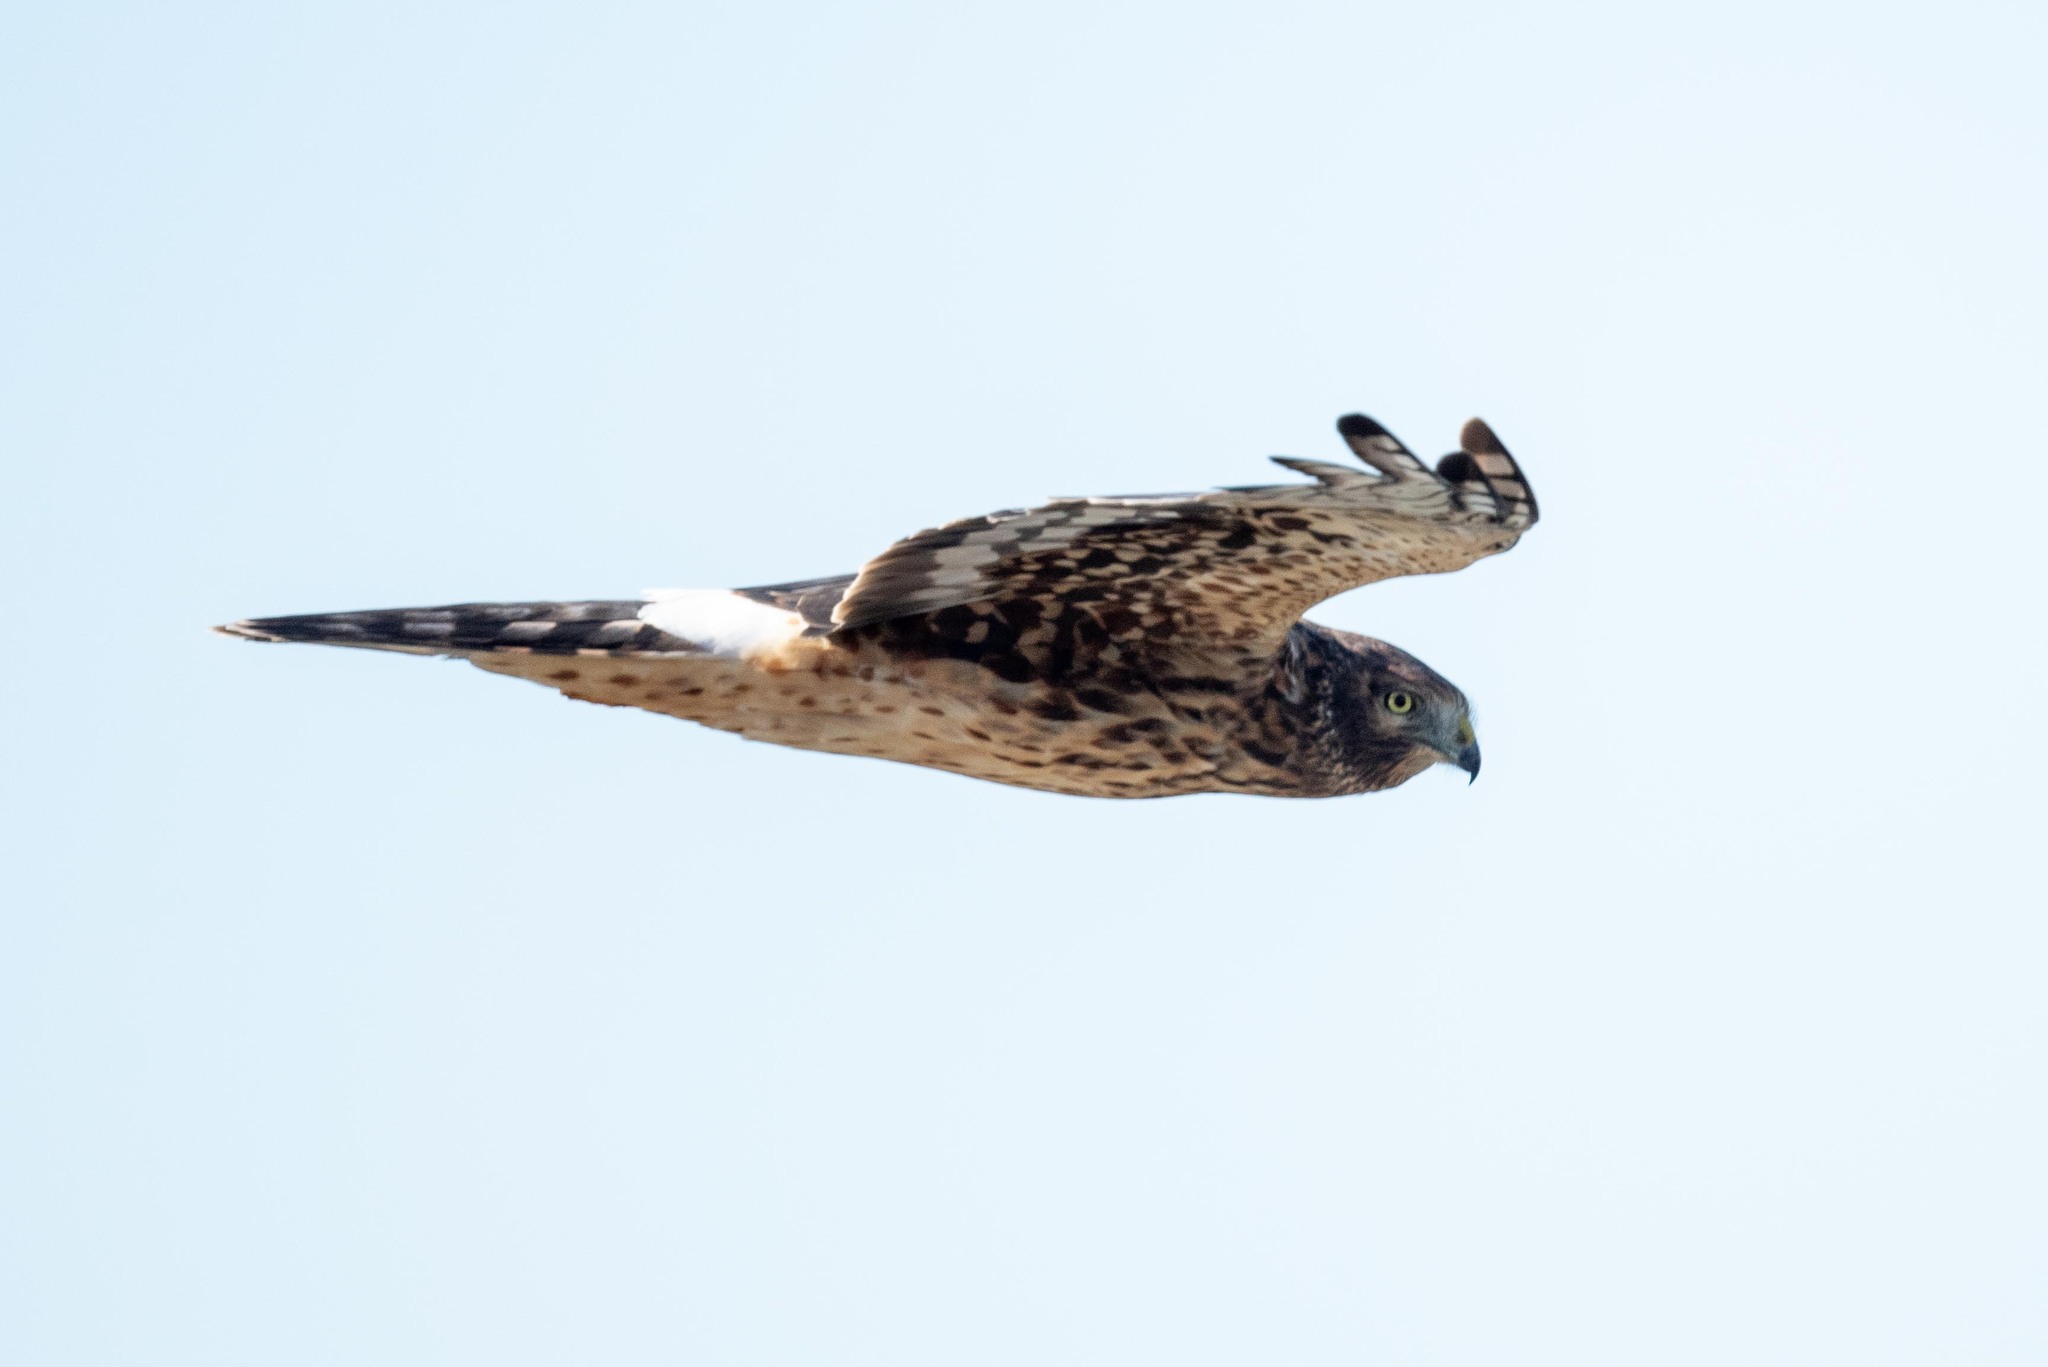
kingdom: Animalia
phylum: Chordata
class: Aves
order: Accipitriformes
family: Accipitridae
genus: Circus
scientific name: Circus cyaneus
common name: Hen harrier
